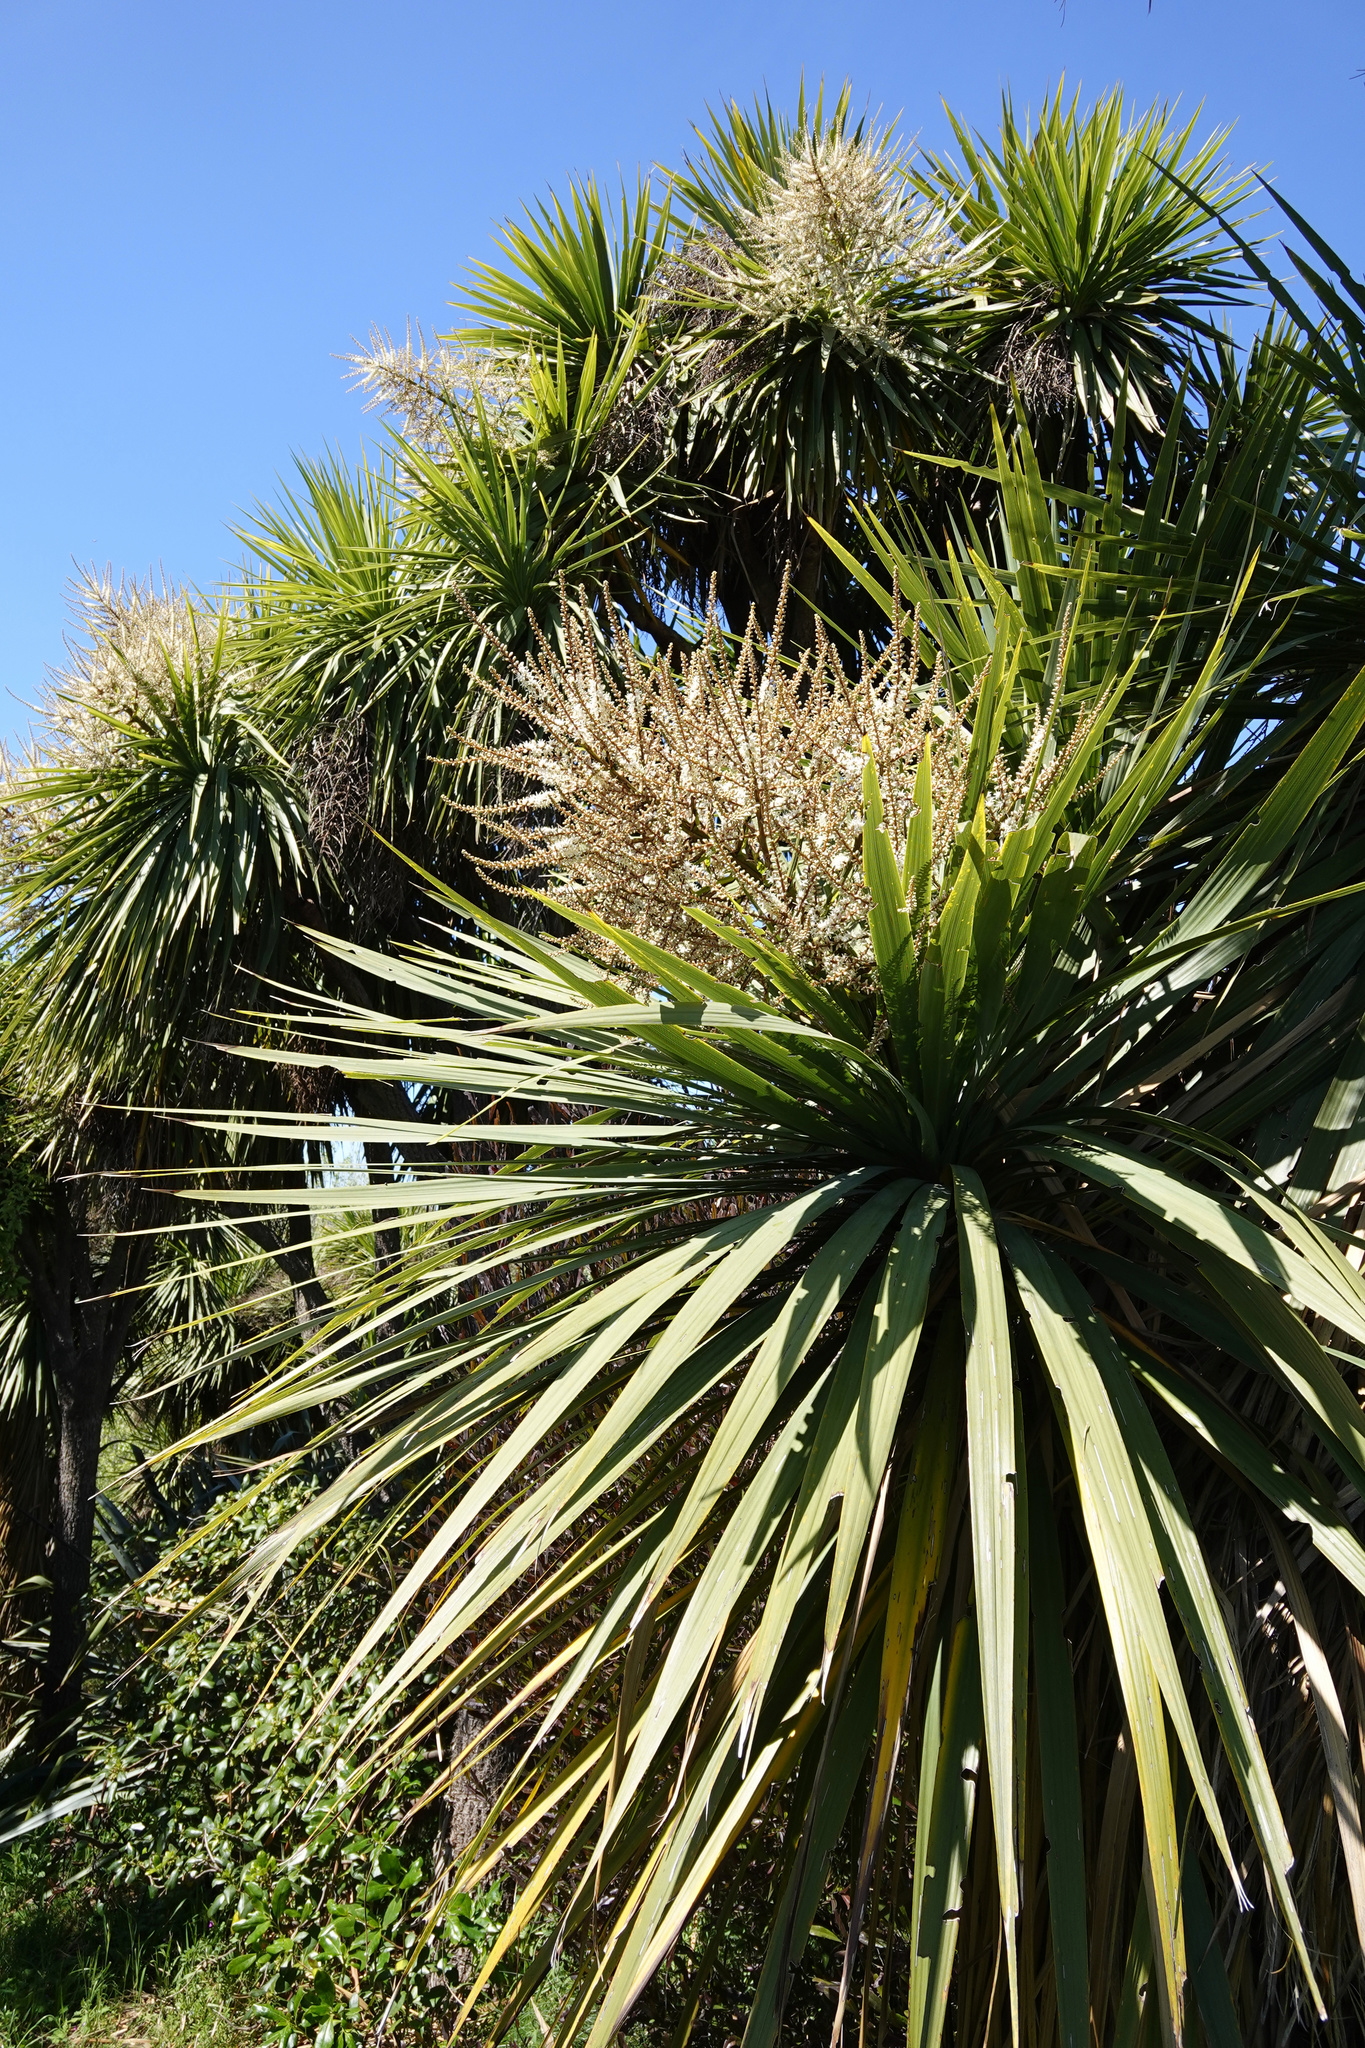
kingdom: Plantae
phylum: Tracheophyta
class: Liliopsida
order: Asparagales
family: Asparagaceae
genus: Cordyline
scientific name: Cordyline australis
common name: Cabbage-palm
